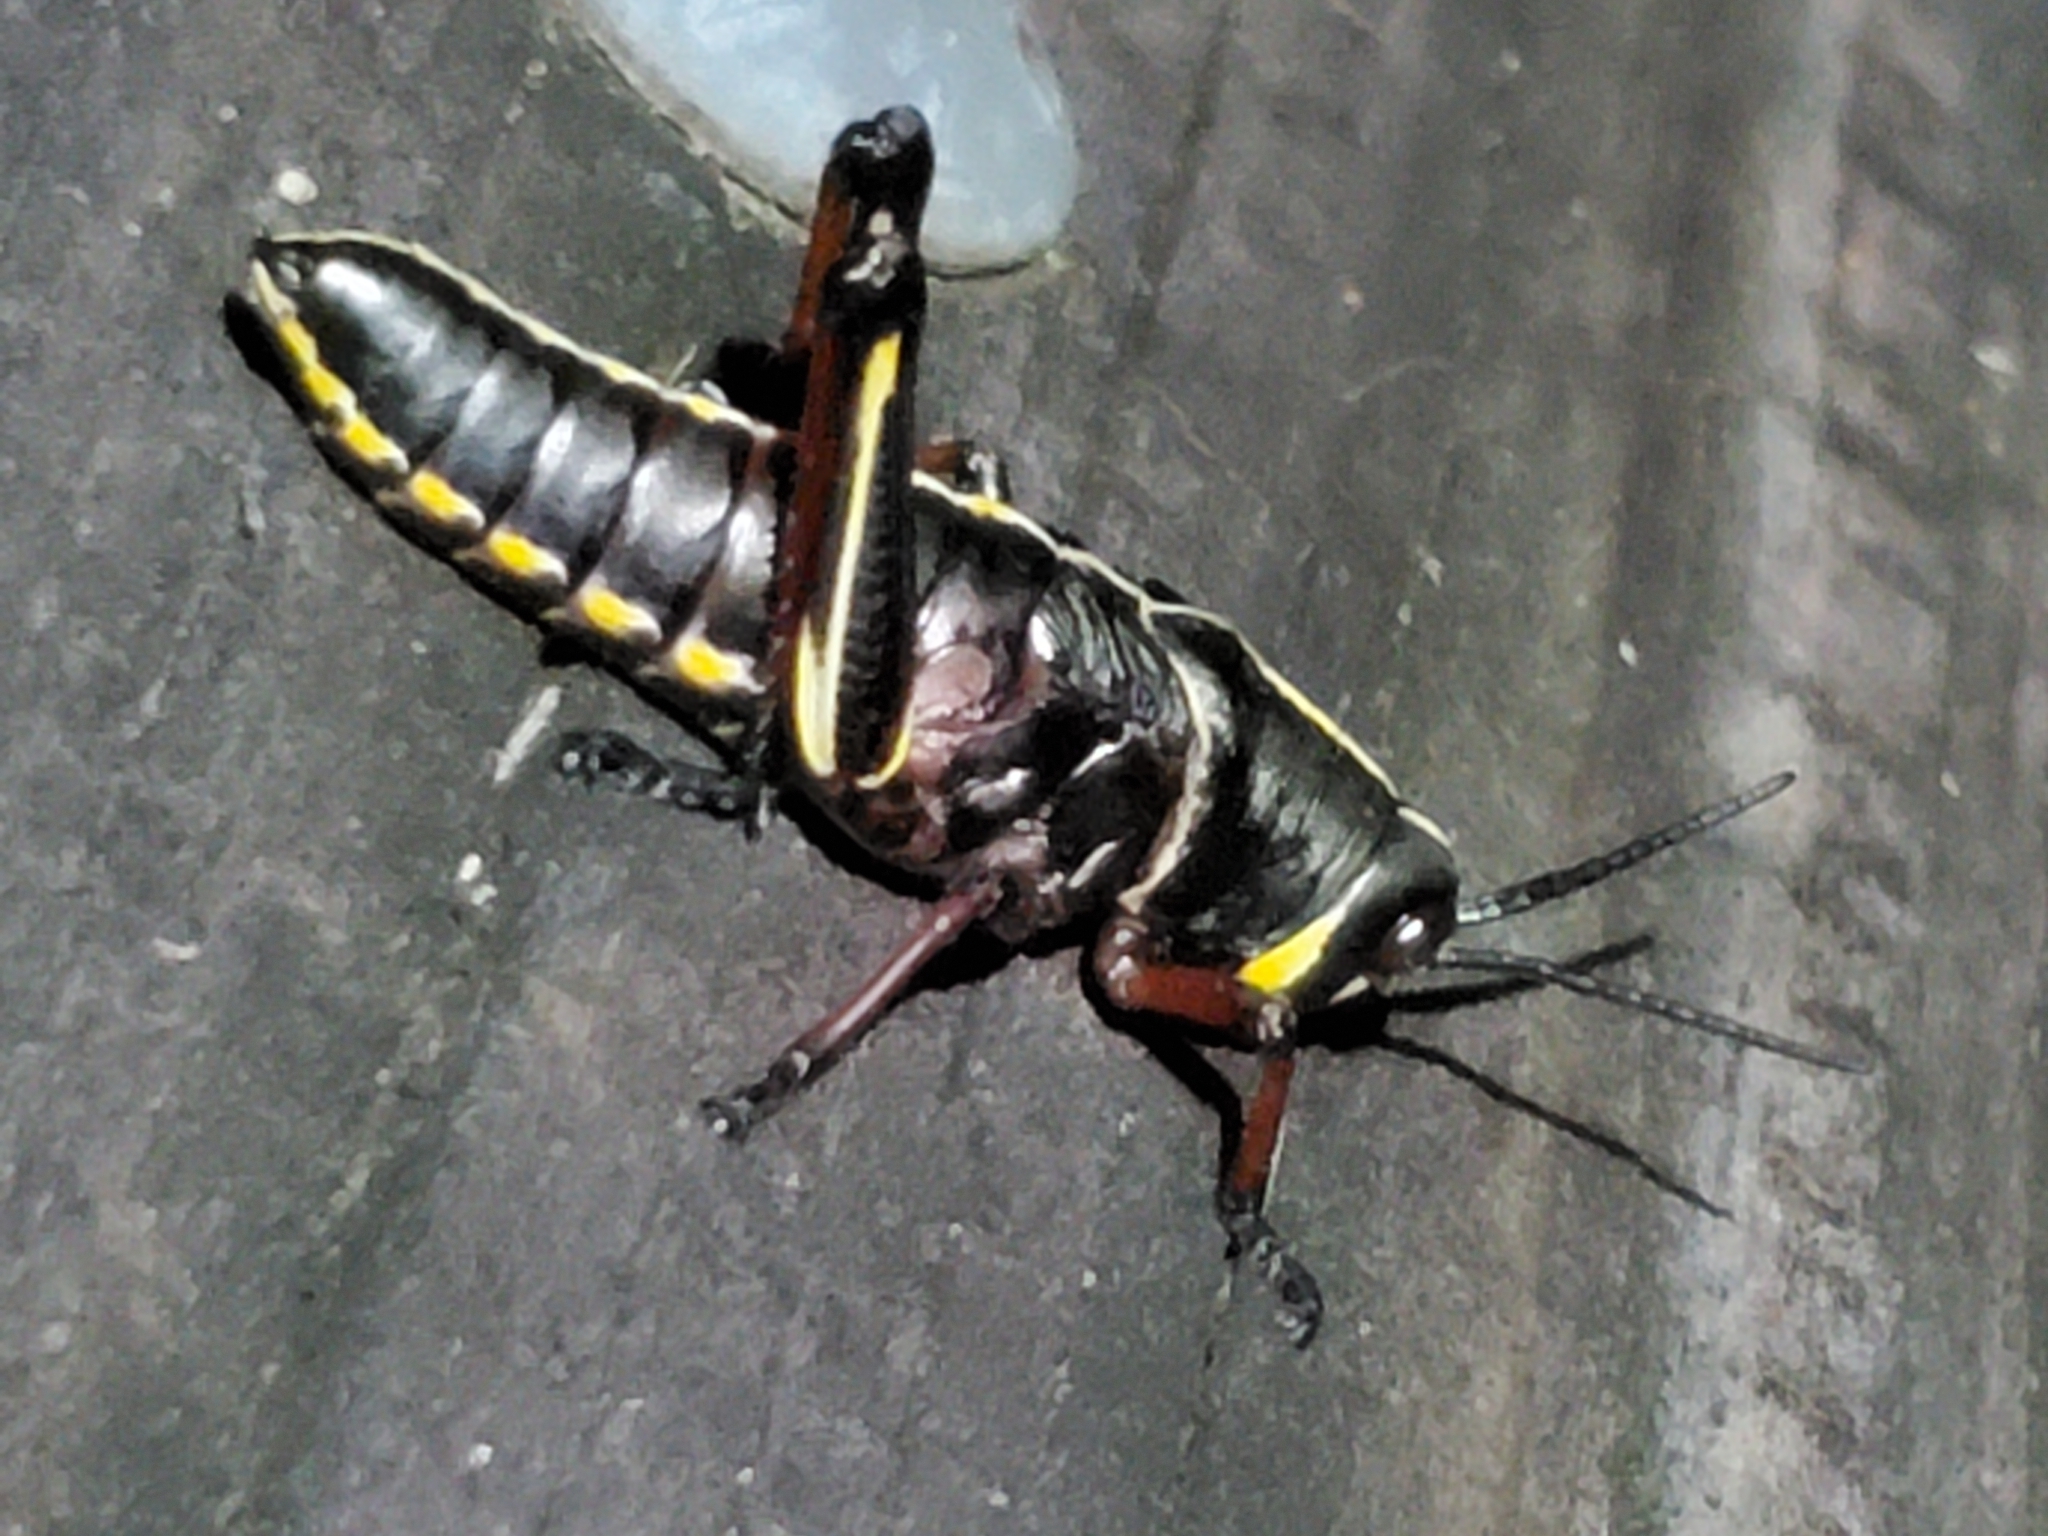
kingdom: Animalia
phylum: Arthropoda
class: Insecta
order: Orthoptera
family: Romaleidae
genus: Romalea
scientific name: Romalea microptera
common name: Eastern lubber grasshopper
